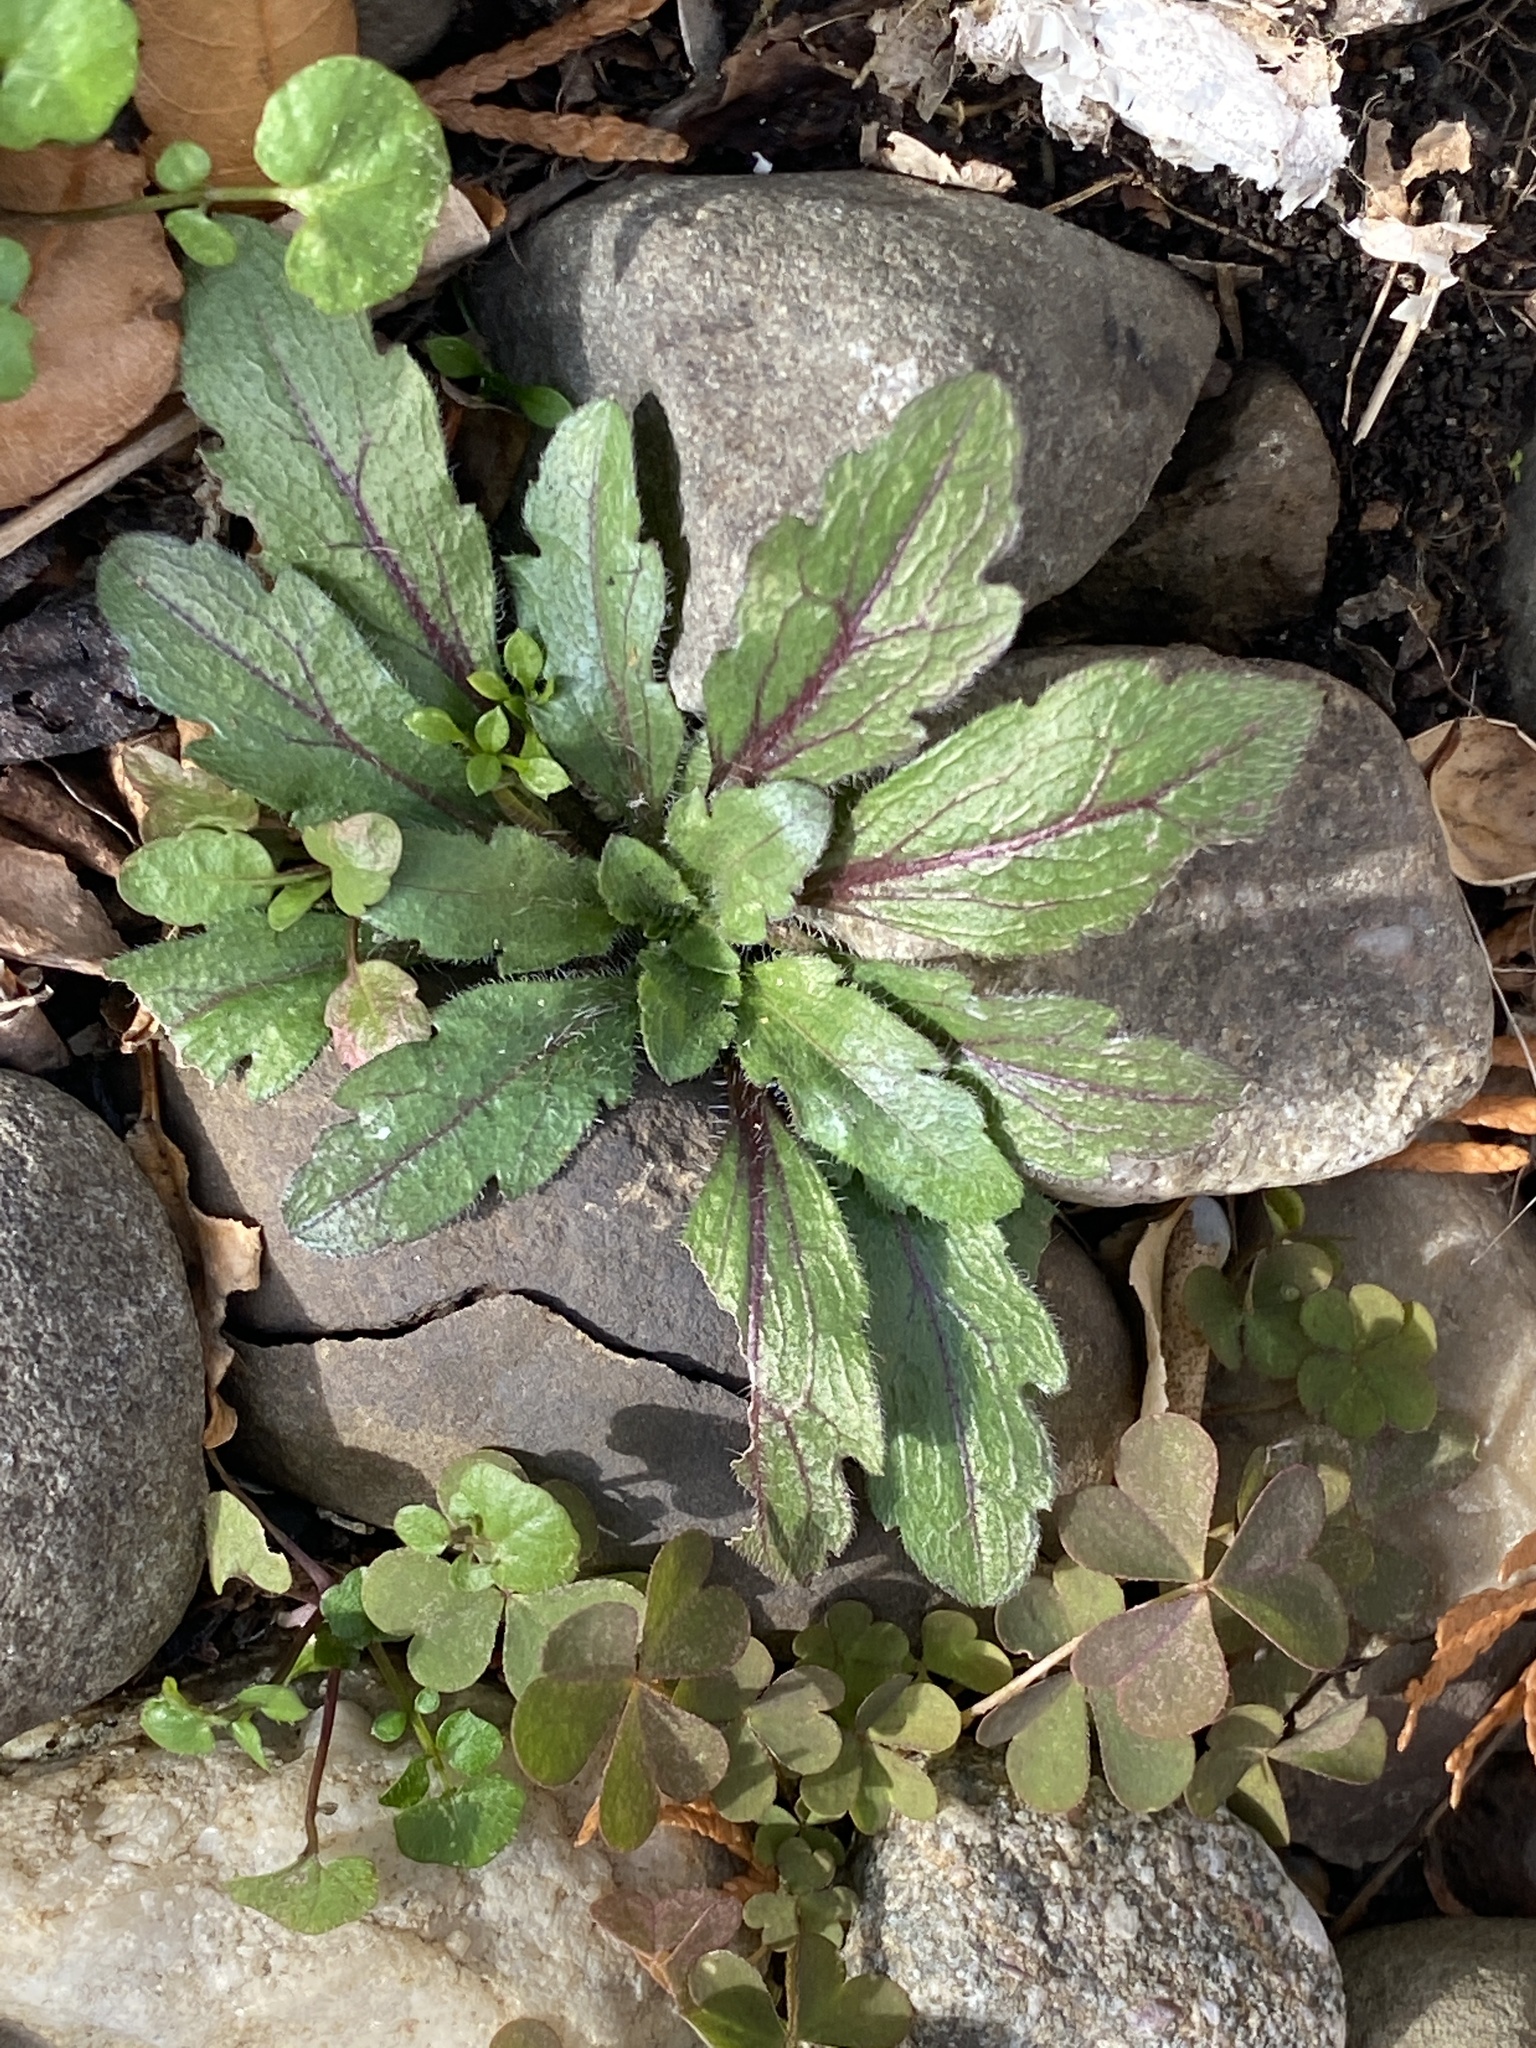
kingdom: Plantae
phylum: Tracheophyta
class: Magnoliopsida
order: Asterales
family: Asteraceae
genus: Erigeron
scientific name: Erigeron canadensis
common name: Canadian fleabane
